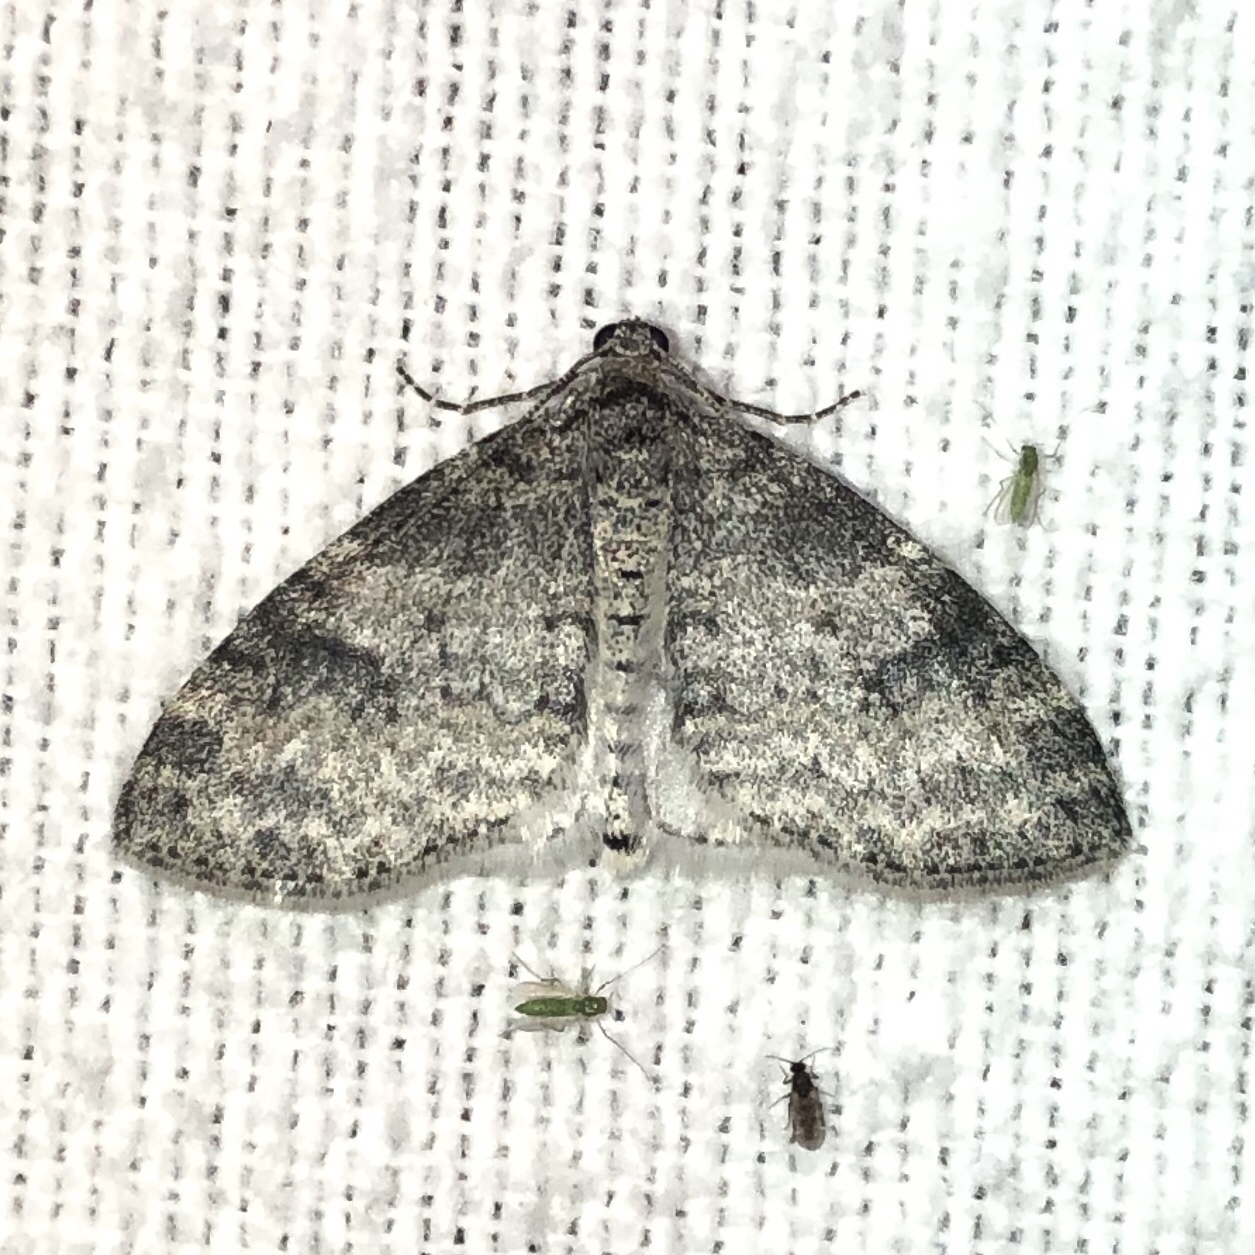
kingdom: Animalia
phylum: Arthropoda
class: Insecta
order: Lepidoptera
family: Geometridae
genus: Lobophora
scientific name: Lobophora nivigerata
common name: Powdered bigwing
